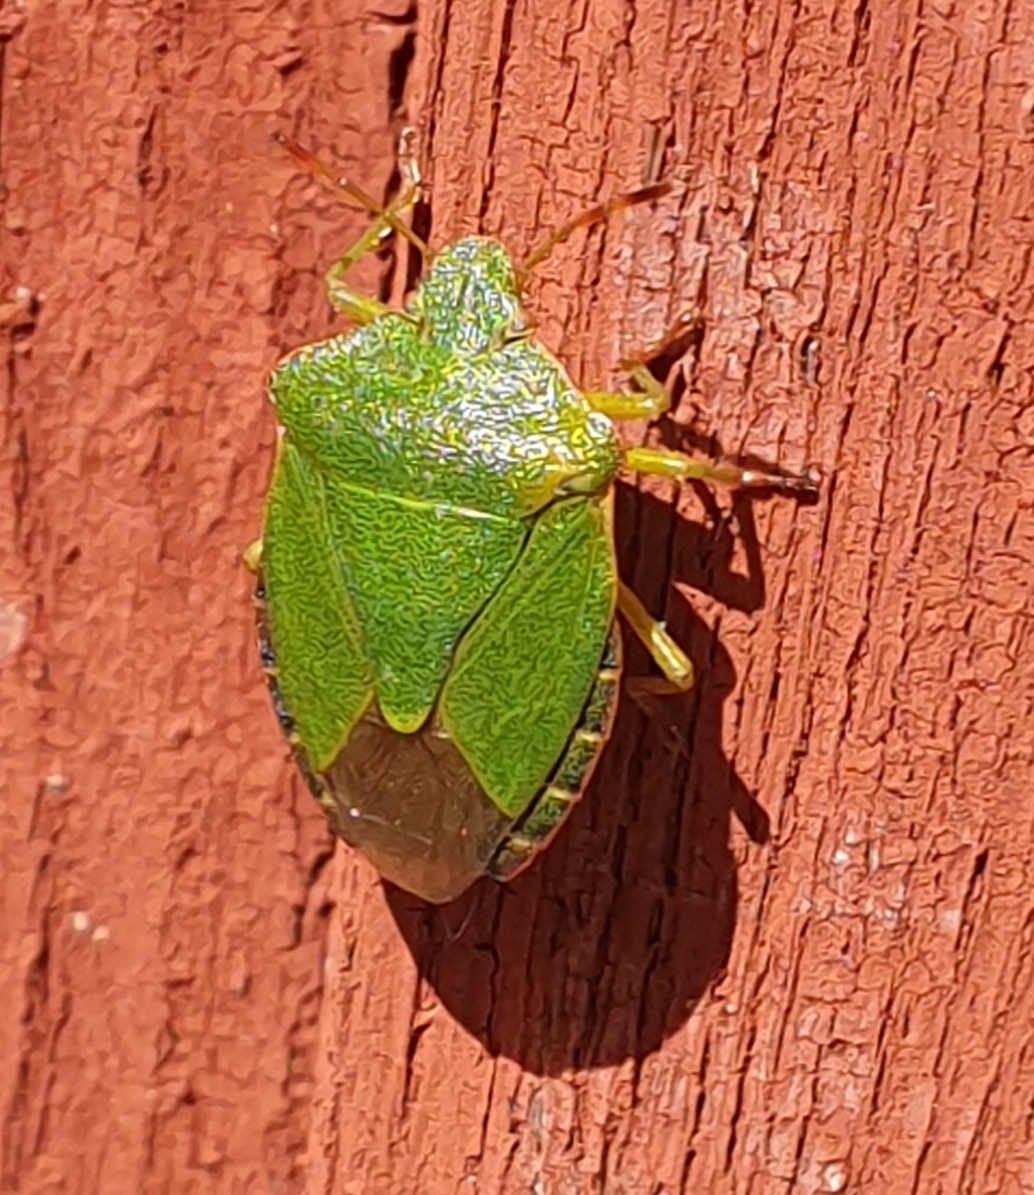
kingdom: Animalia
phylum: Arthropoda
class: Insecta
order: Hemiptera
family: Pentatomidae
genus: Palomena
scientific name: Palomena prasina
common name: Green shieldbug
